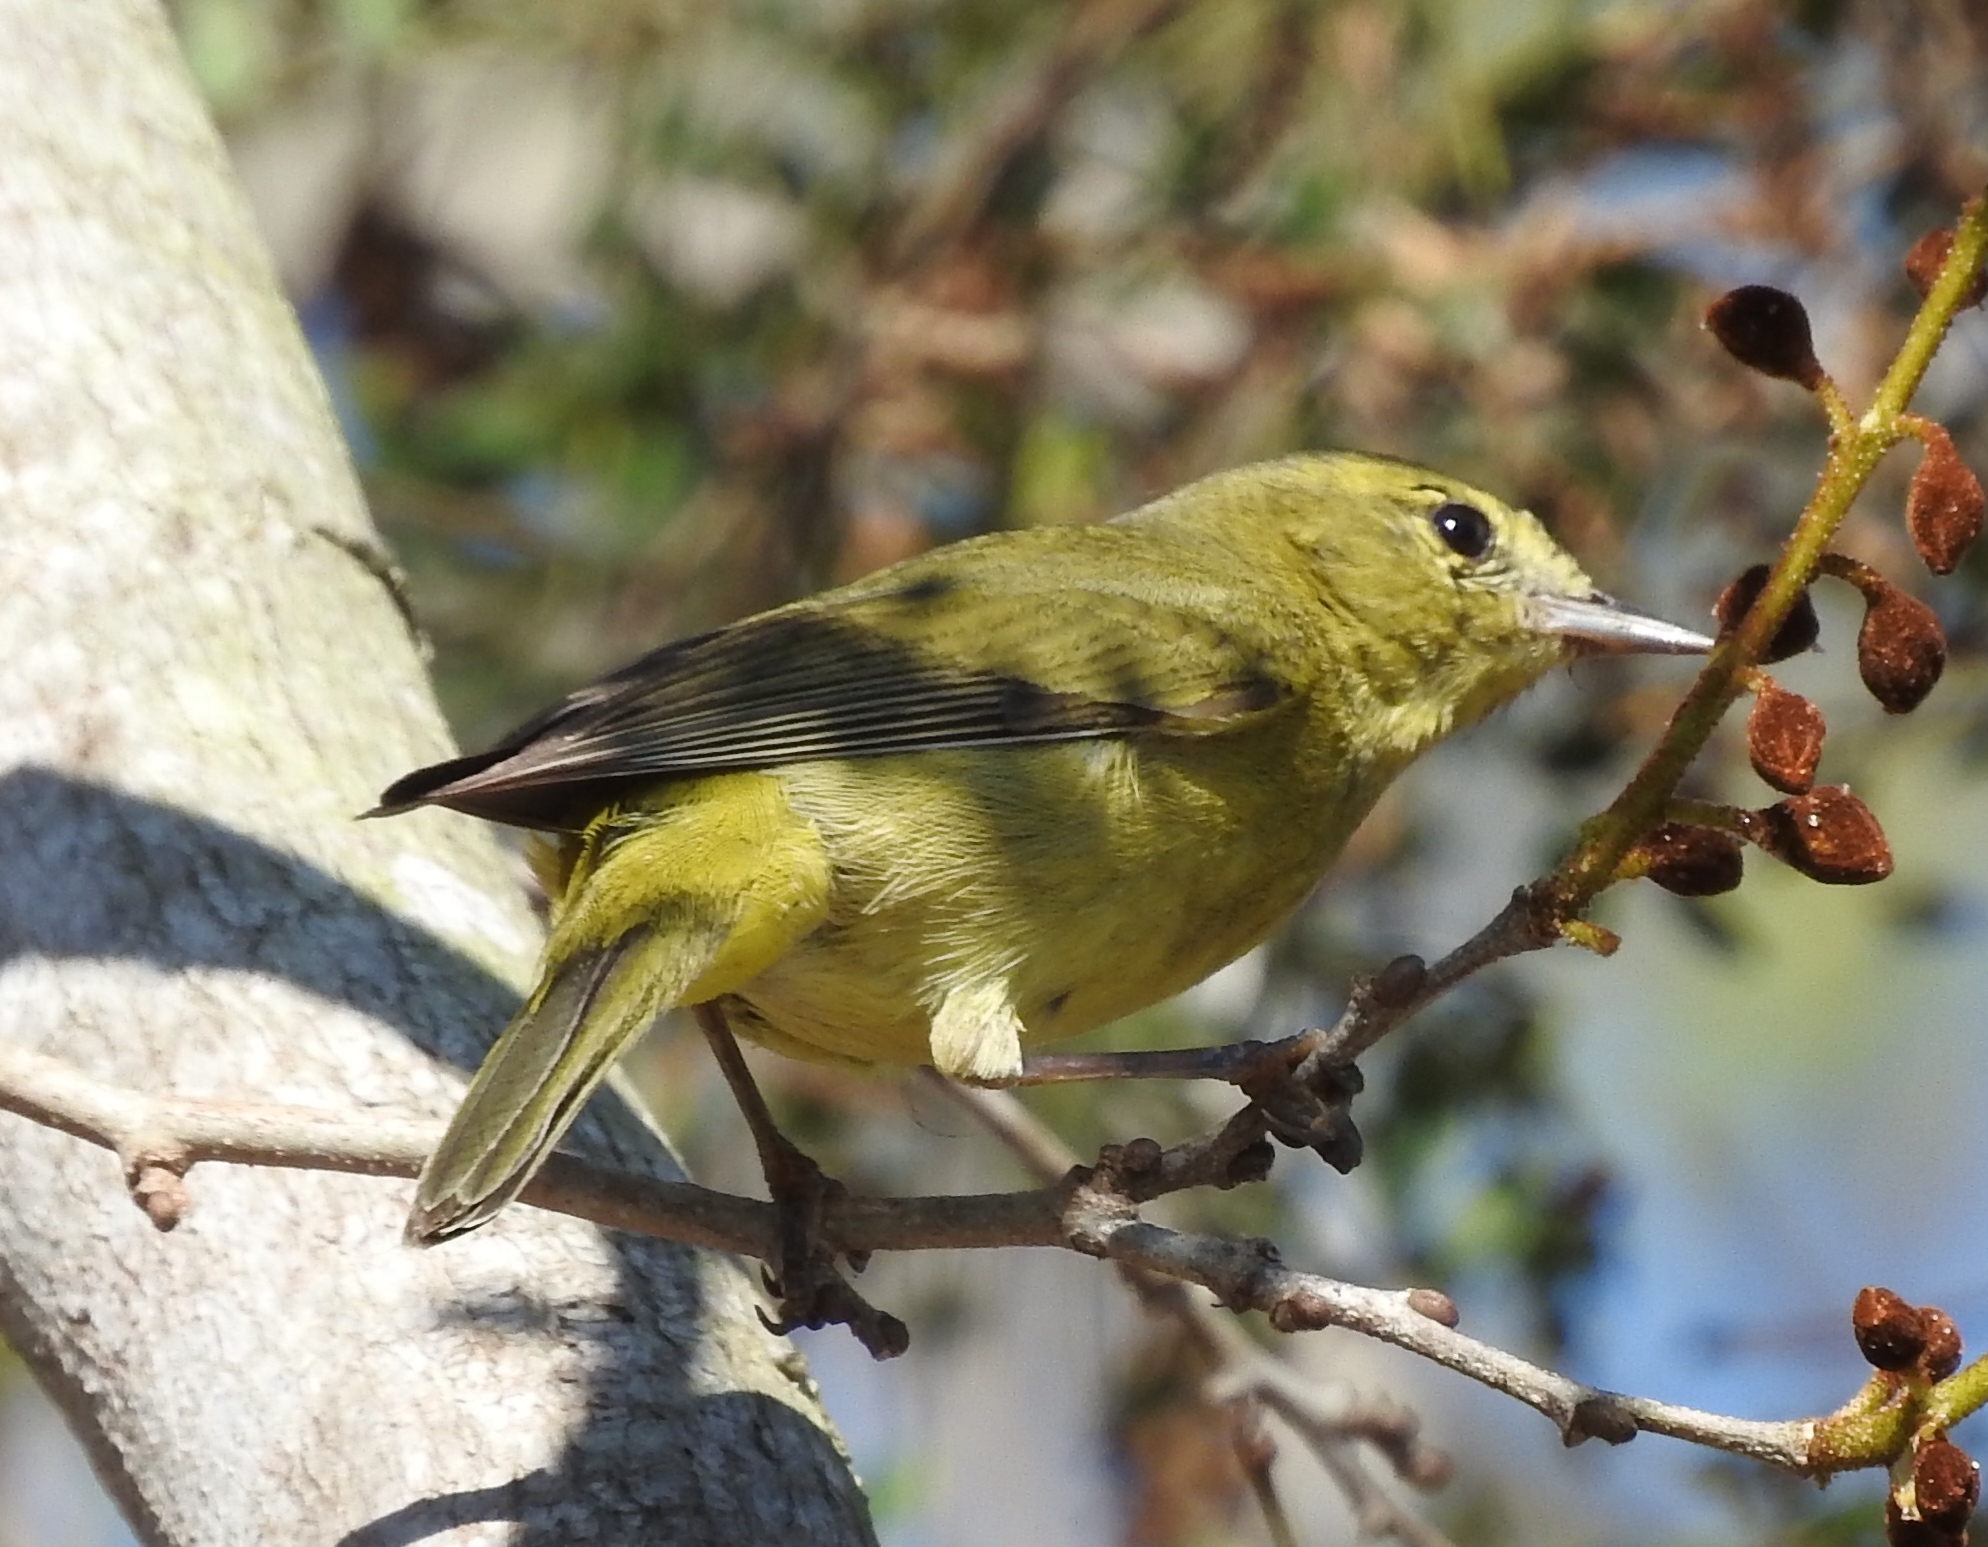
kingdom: Animalia
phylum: Chordata
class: Aves
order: Passeriformes
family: Parulidae
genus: Leiothlypis
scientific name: Leiothlypis celata
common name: Orange-crowned warbler
